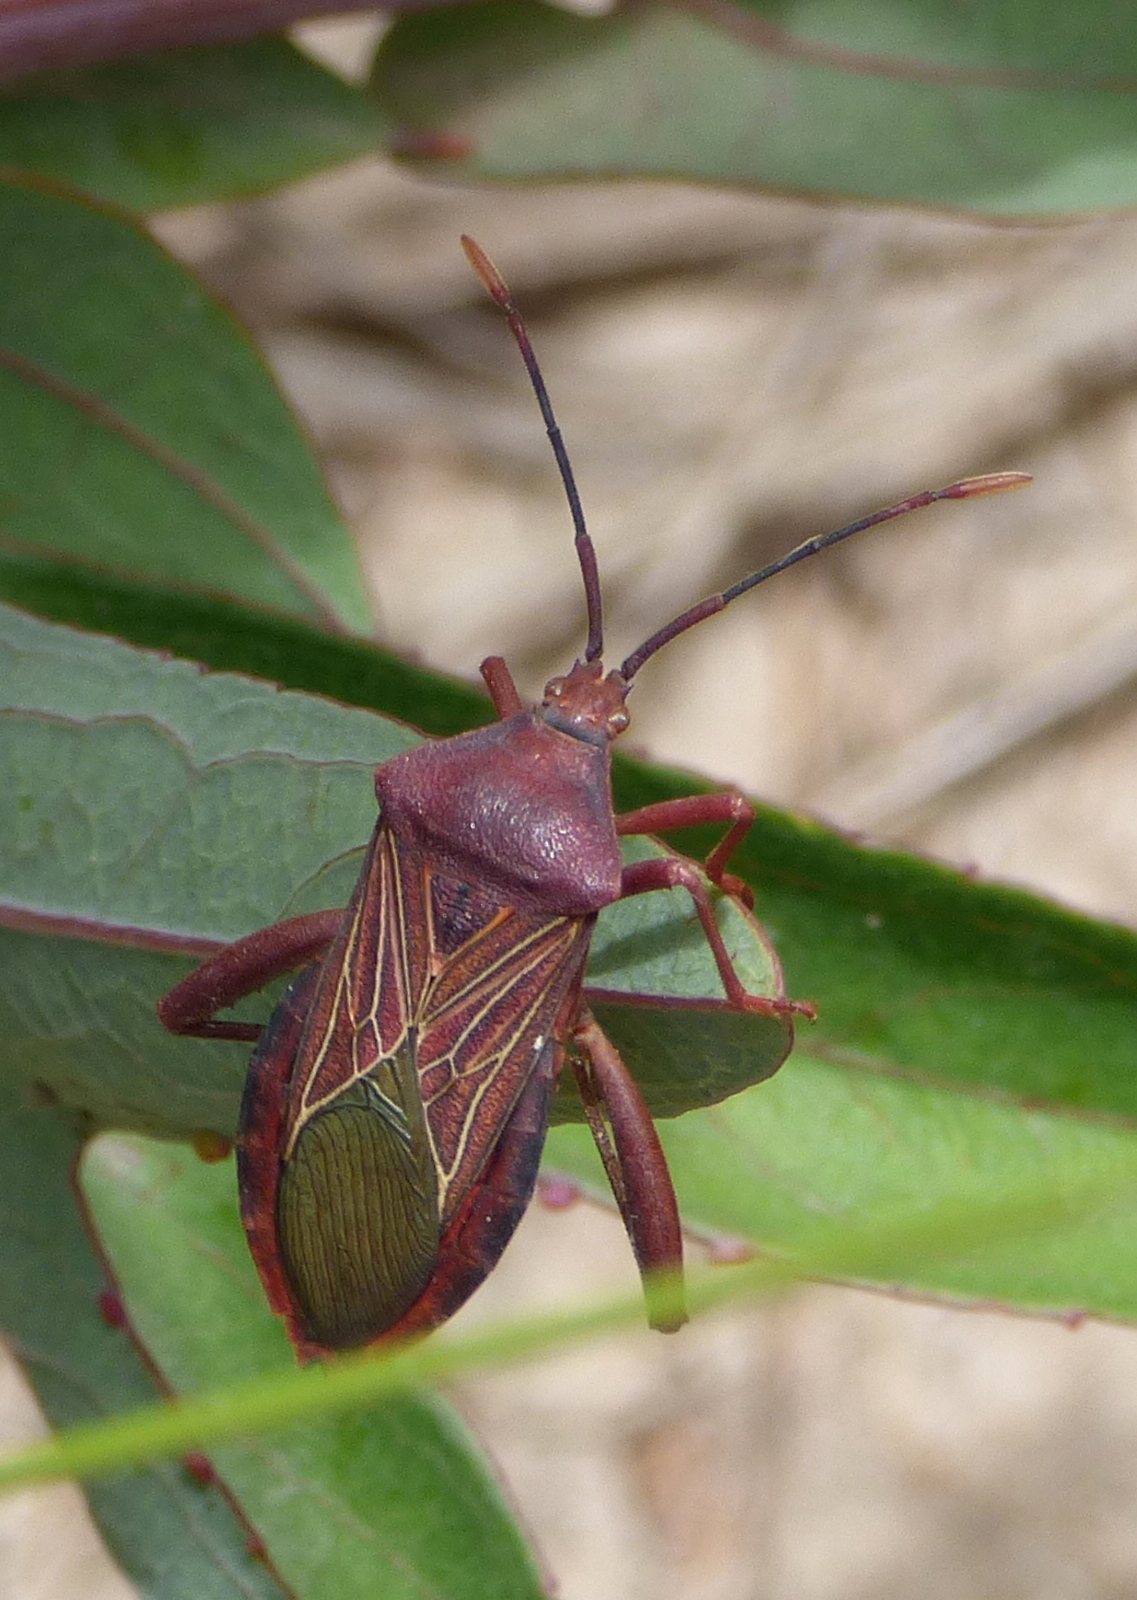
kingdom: Animalia
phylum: Arthropoda
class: Insecta
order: Hemiptera
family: Coreidae
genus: Athaumastus
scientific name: Athaumastus haematicus
